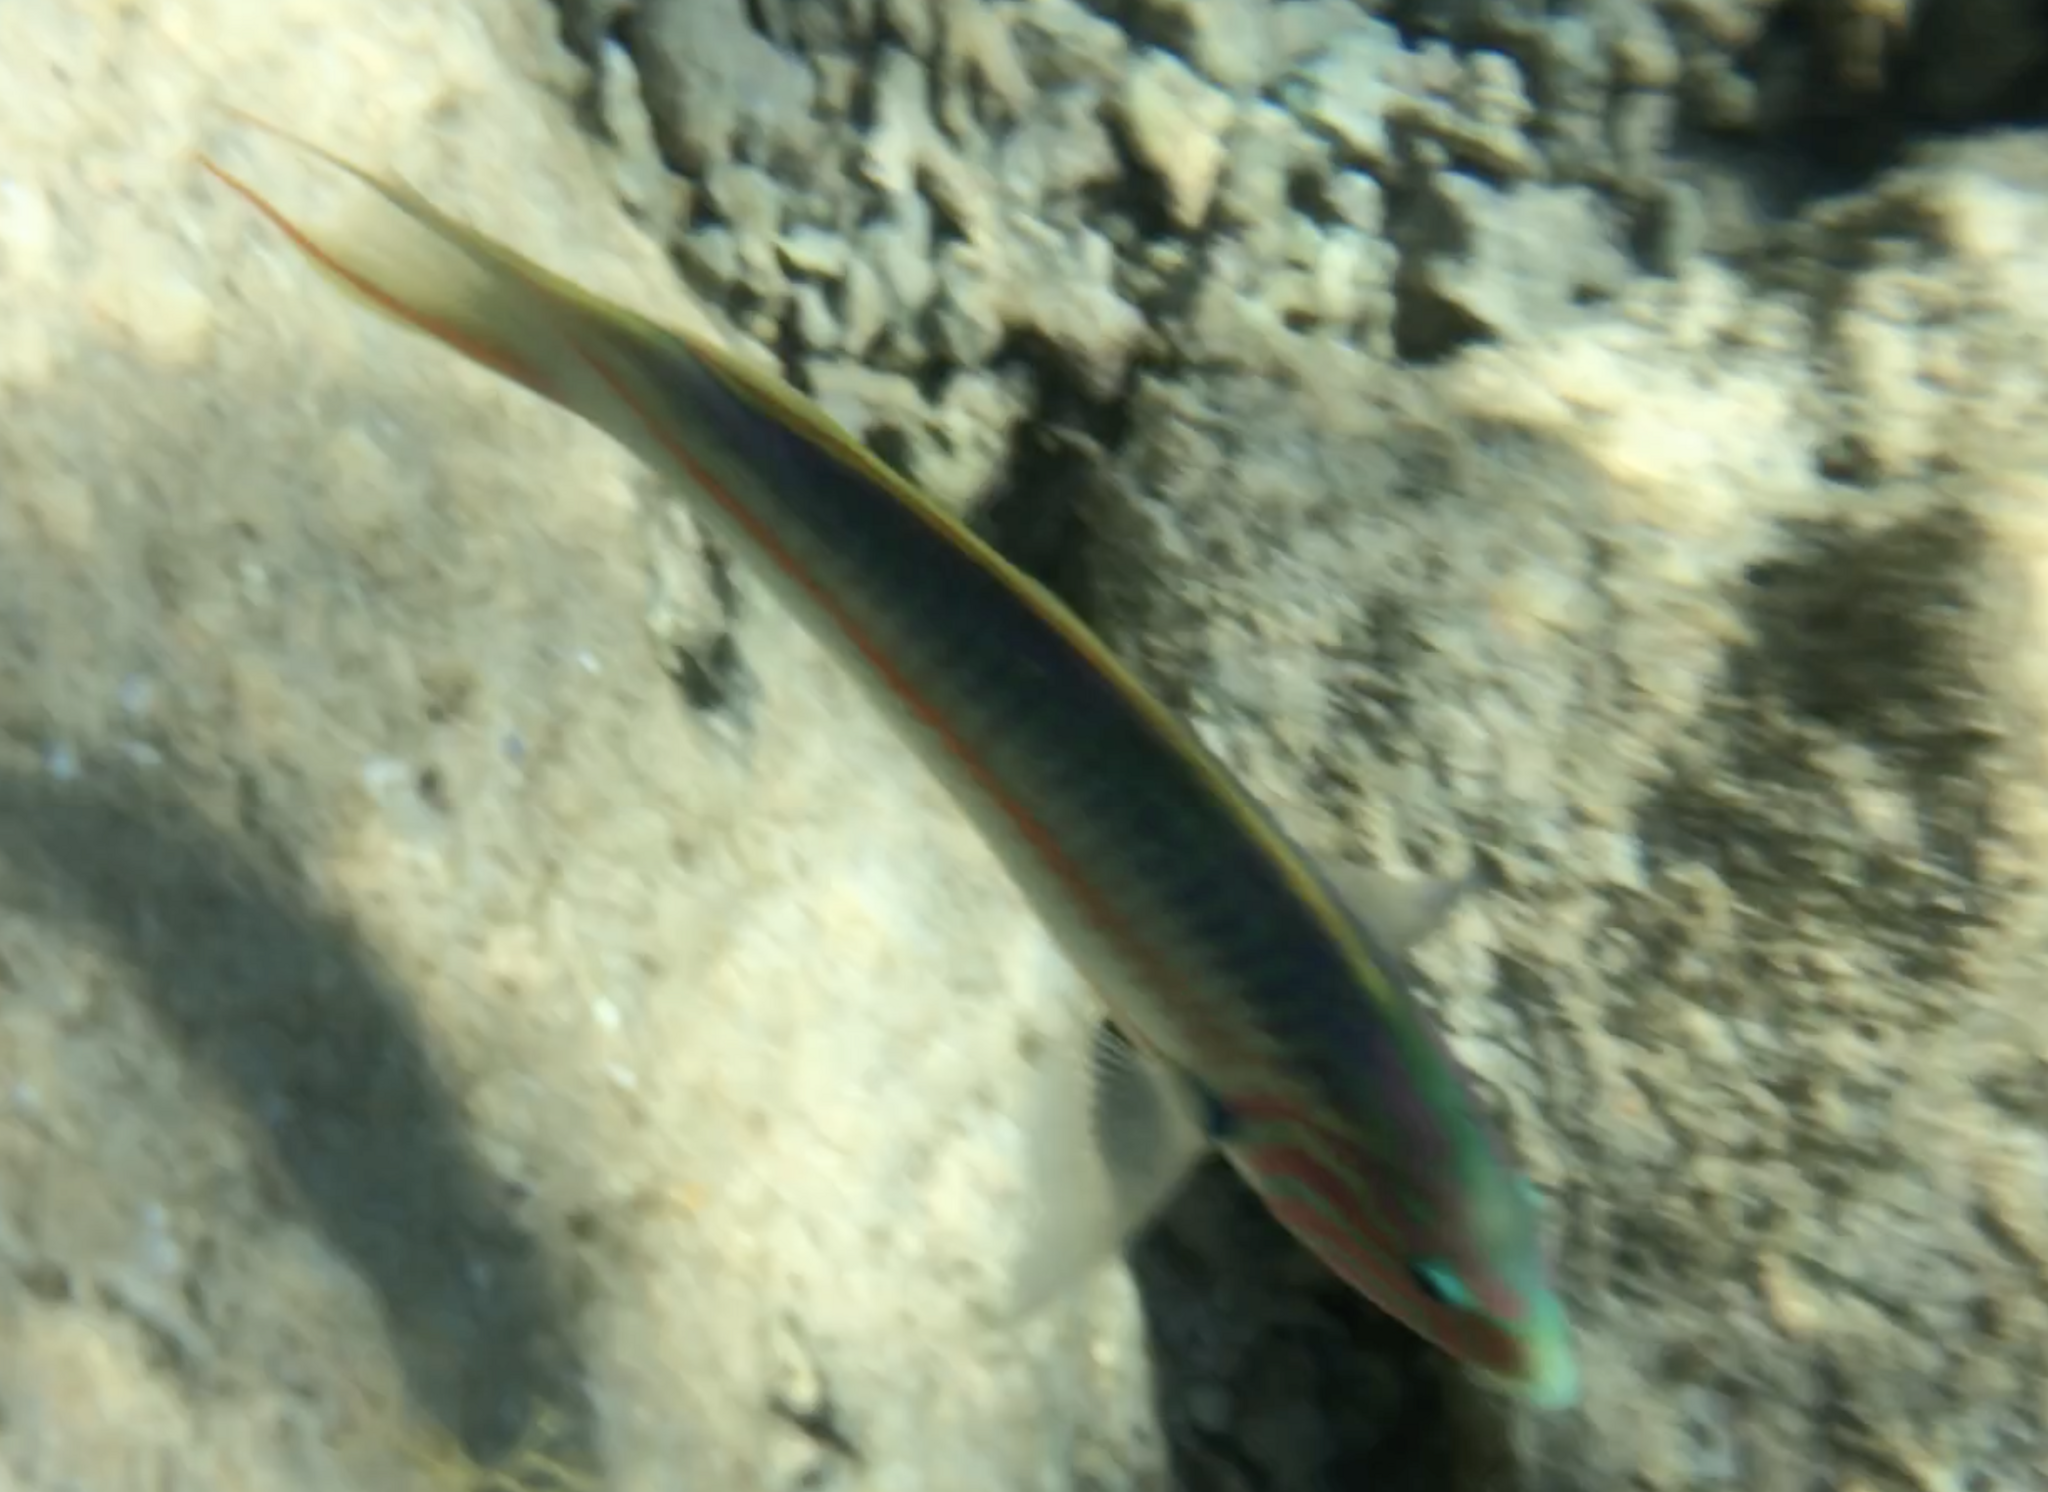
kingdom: Animalia
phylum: Chordata
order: Perciformes
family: Labridae
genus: Thalassoma
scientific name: Thalassoma rueppellii
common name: Klunzinger's wrasse
